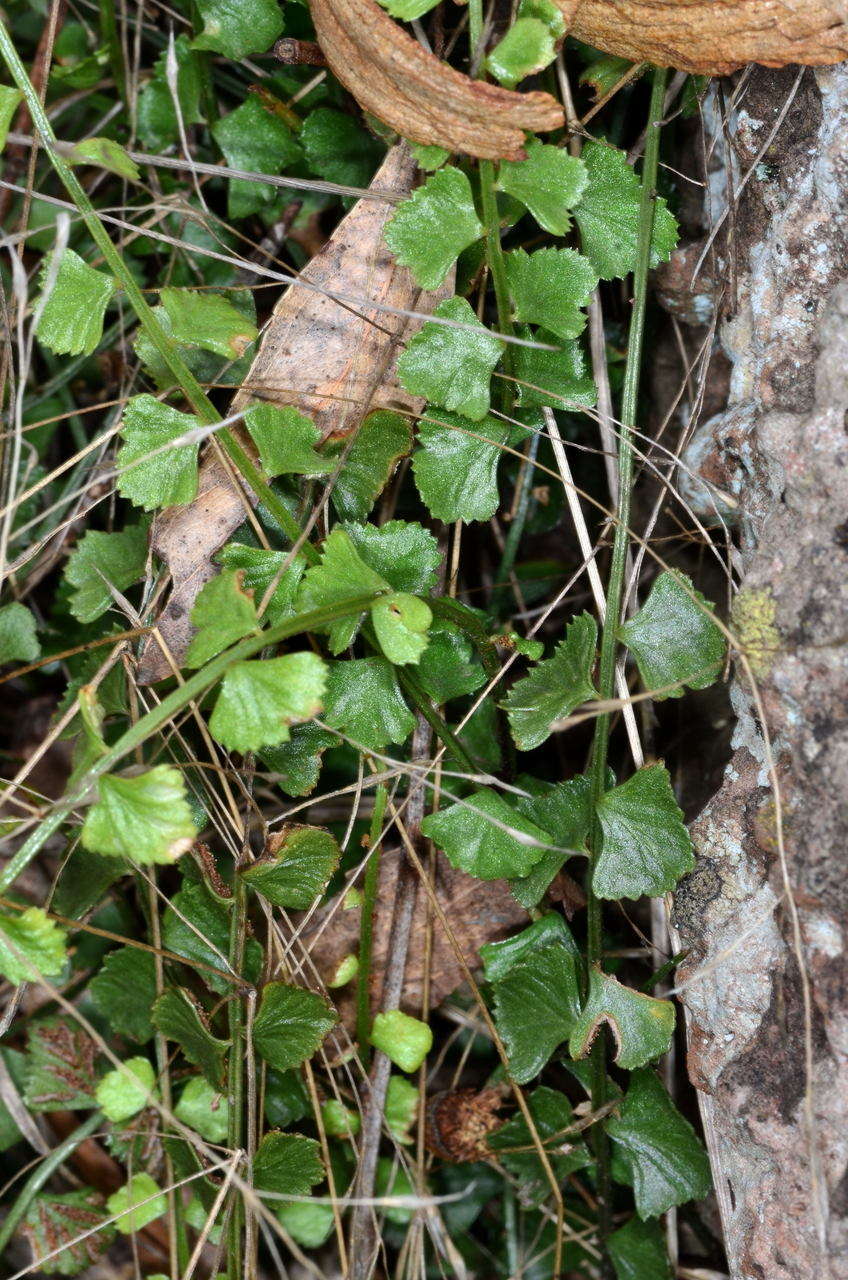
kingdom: Plantae
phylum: Tracheophyta
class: Polypodiopsida
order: Polypodiales
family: Aspleniaceae
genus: Asplenium
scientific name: Asplenium flabellifolium
